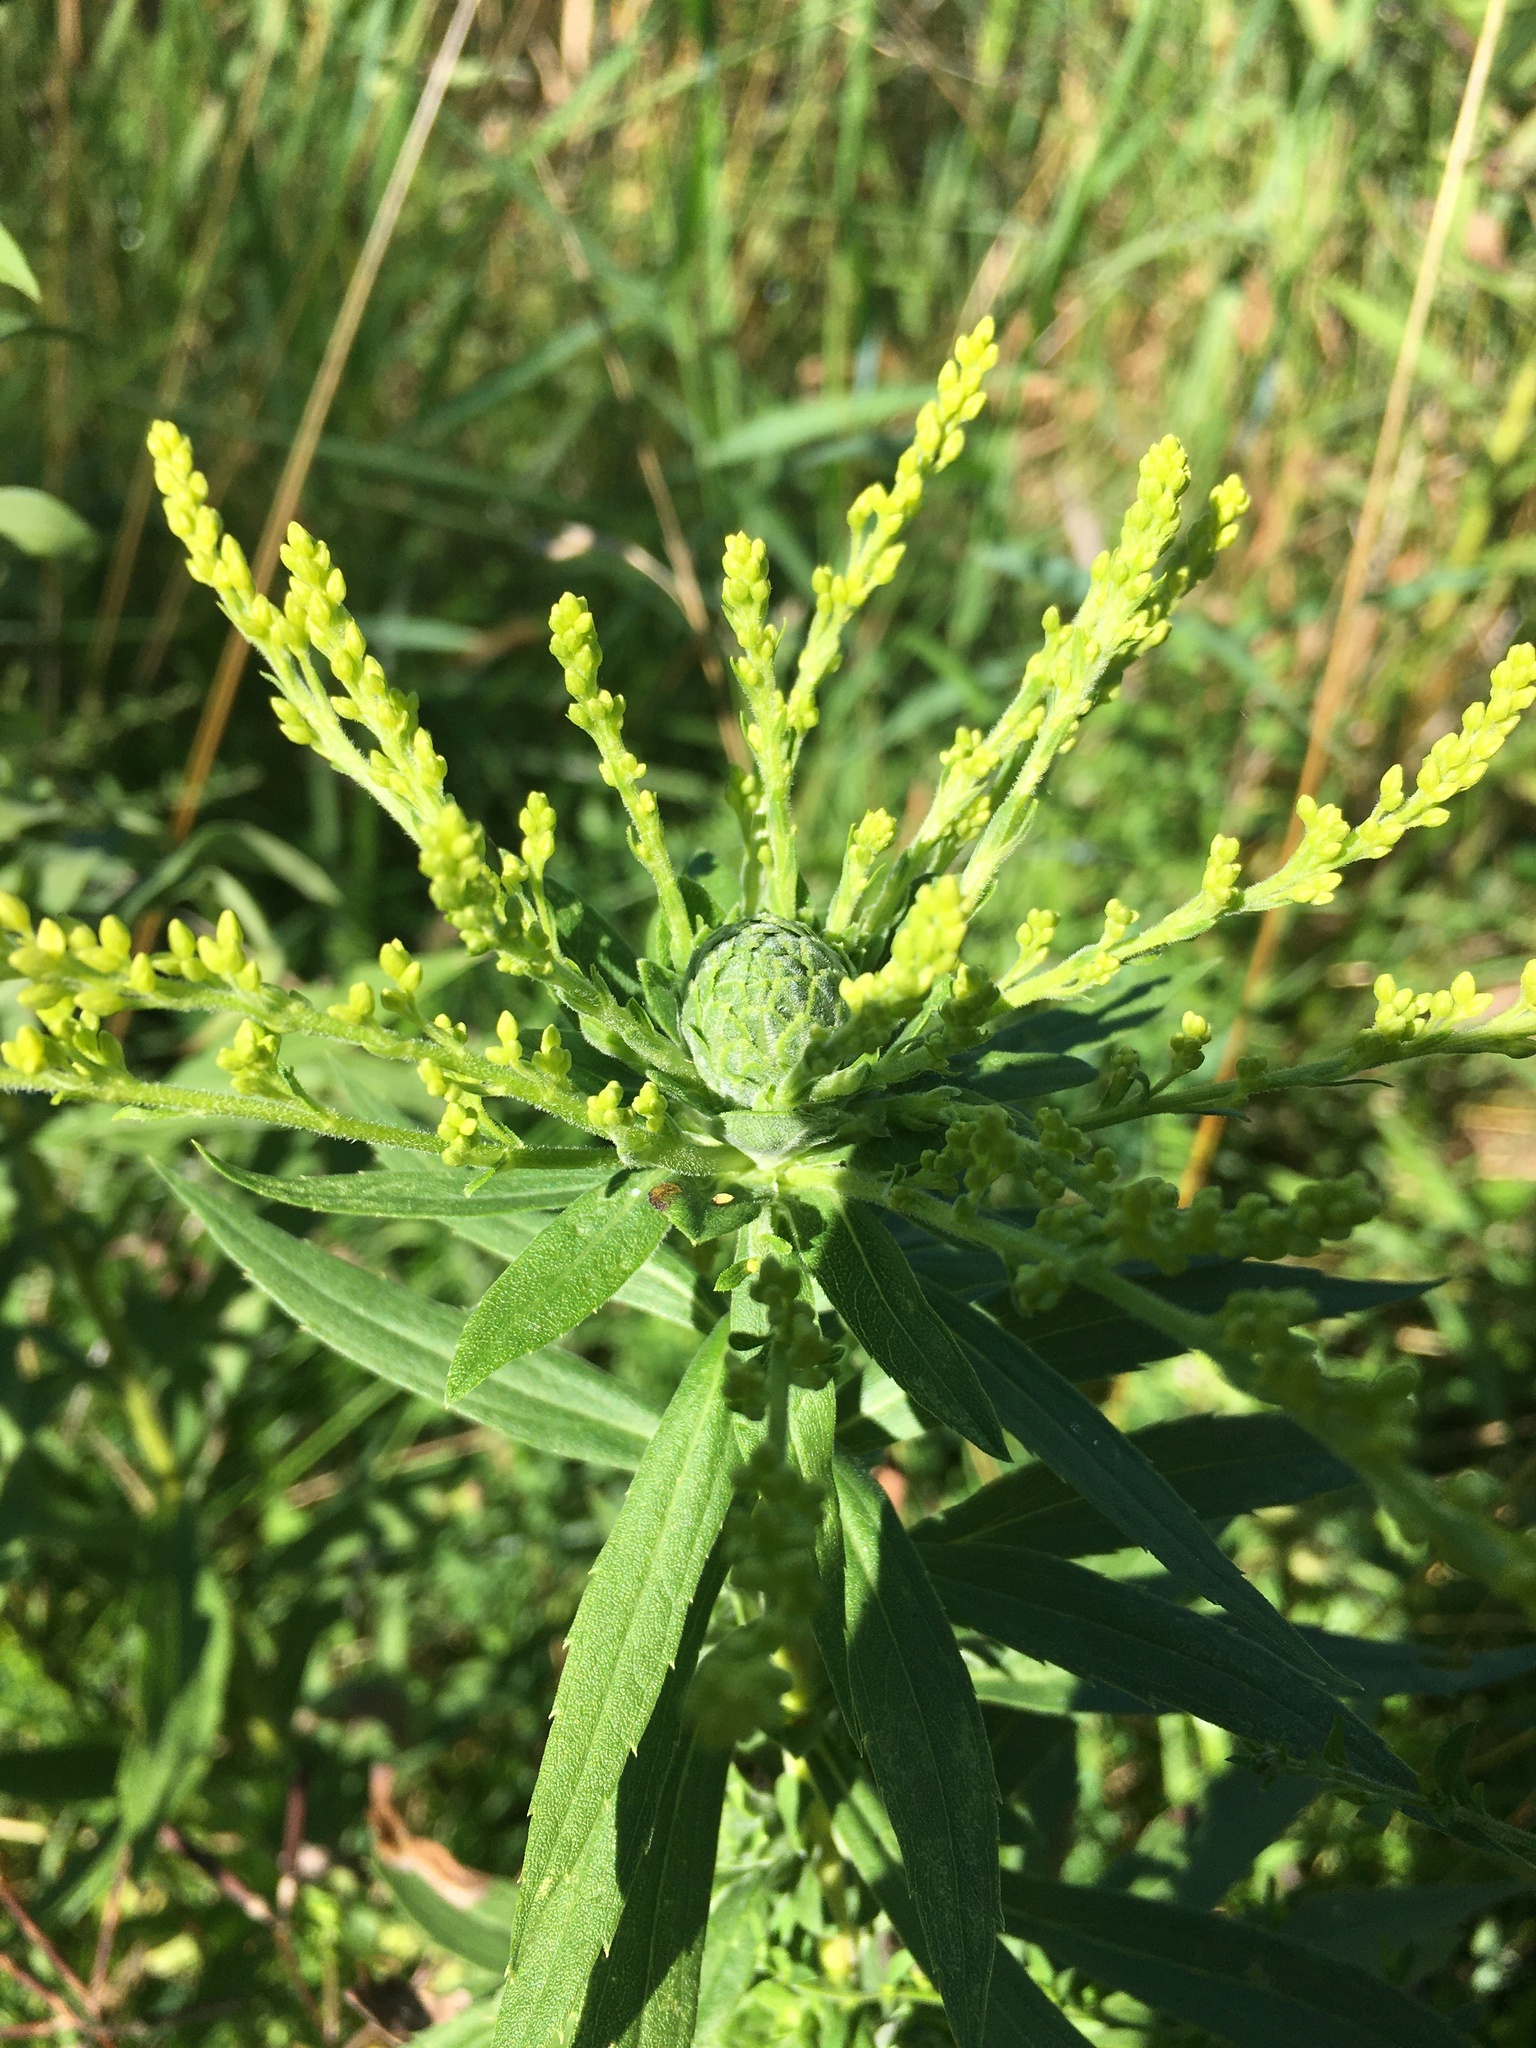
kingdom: Animalia
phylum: Arthropoda
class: Insecta
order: Diptera
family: Tephritidae
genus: Procecidochares
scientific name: Procecidochares atra
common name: Goldenrod brussels sprout gall fly
